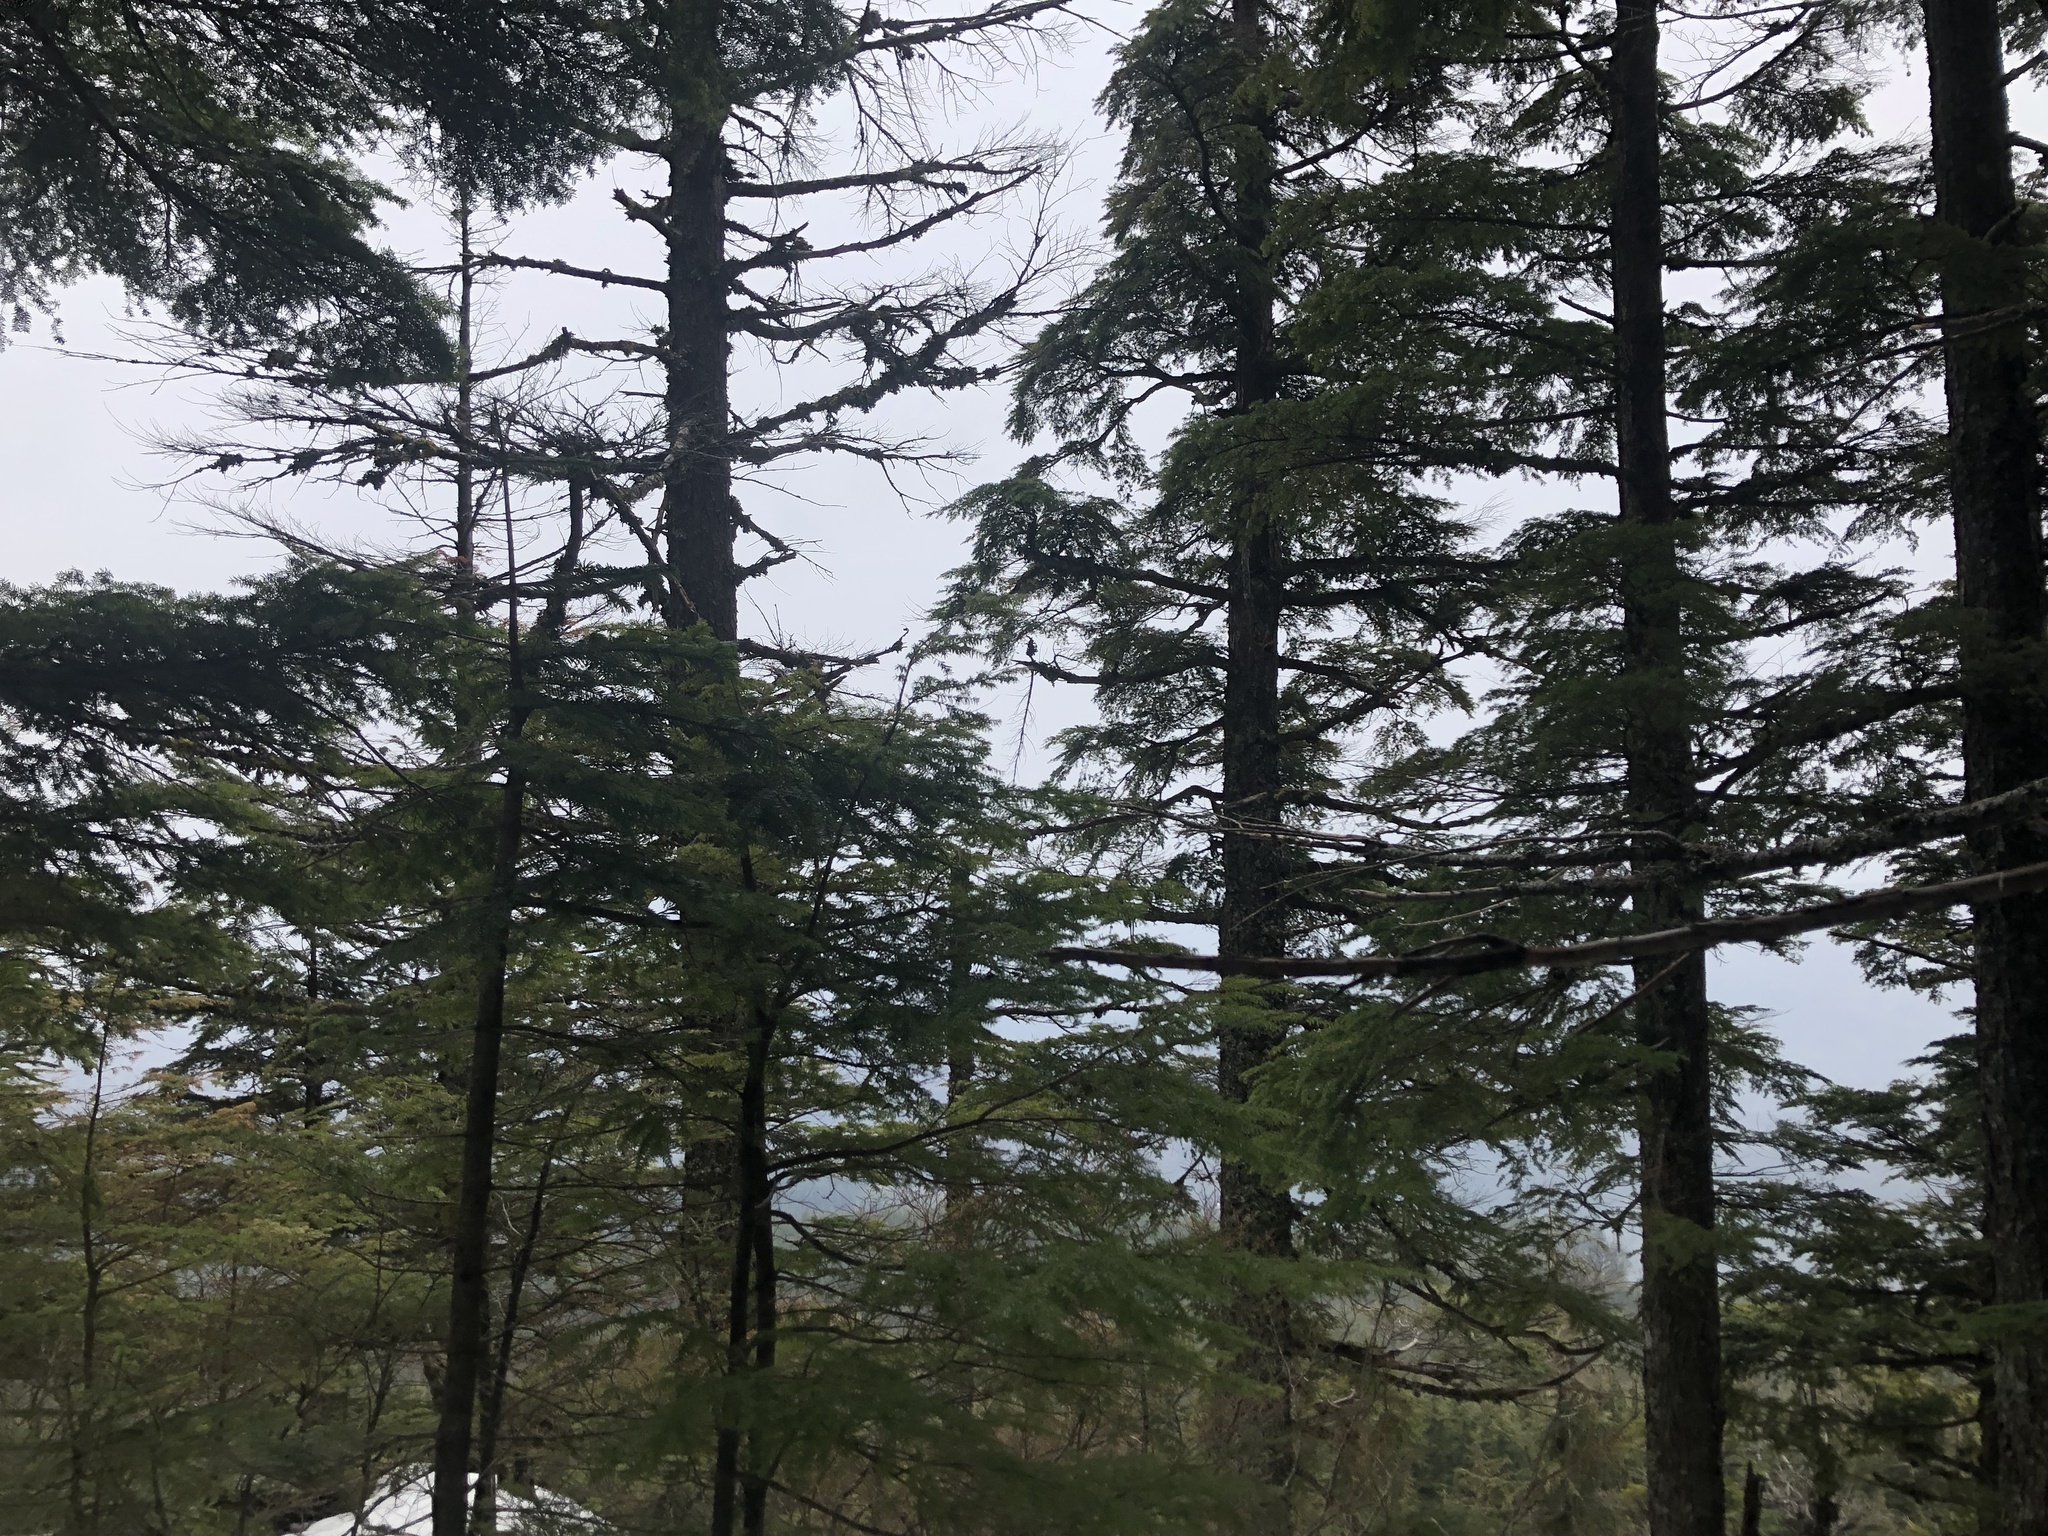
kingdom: Plantae
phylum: Tracheophyta
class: Pinopsida
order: Pinales
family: Pinaceae
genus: Tsuga
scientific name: Tsuga heterophylla
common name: Western hemlock
